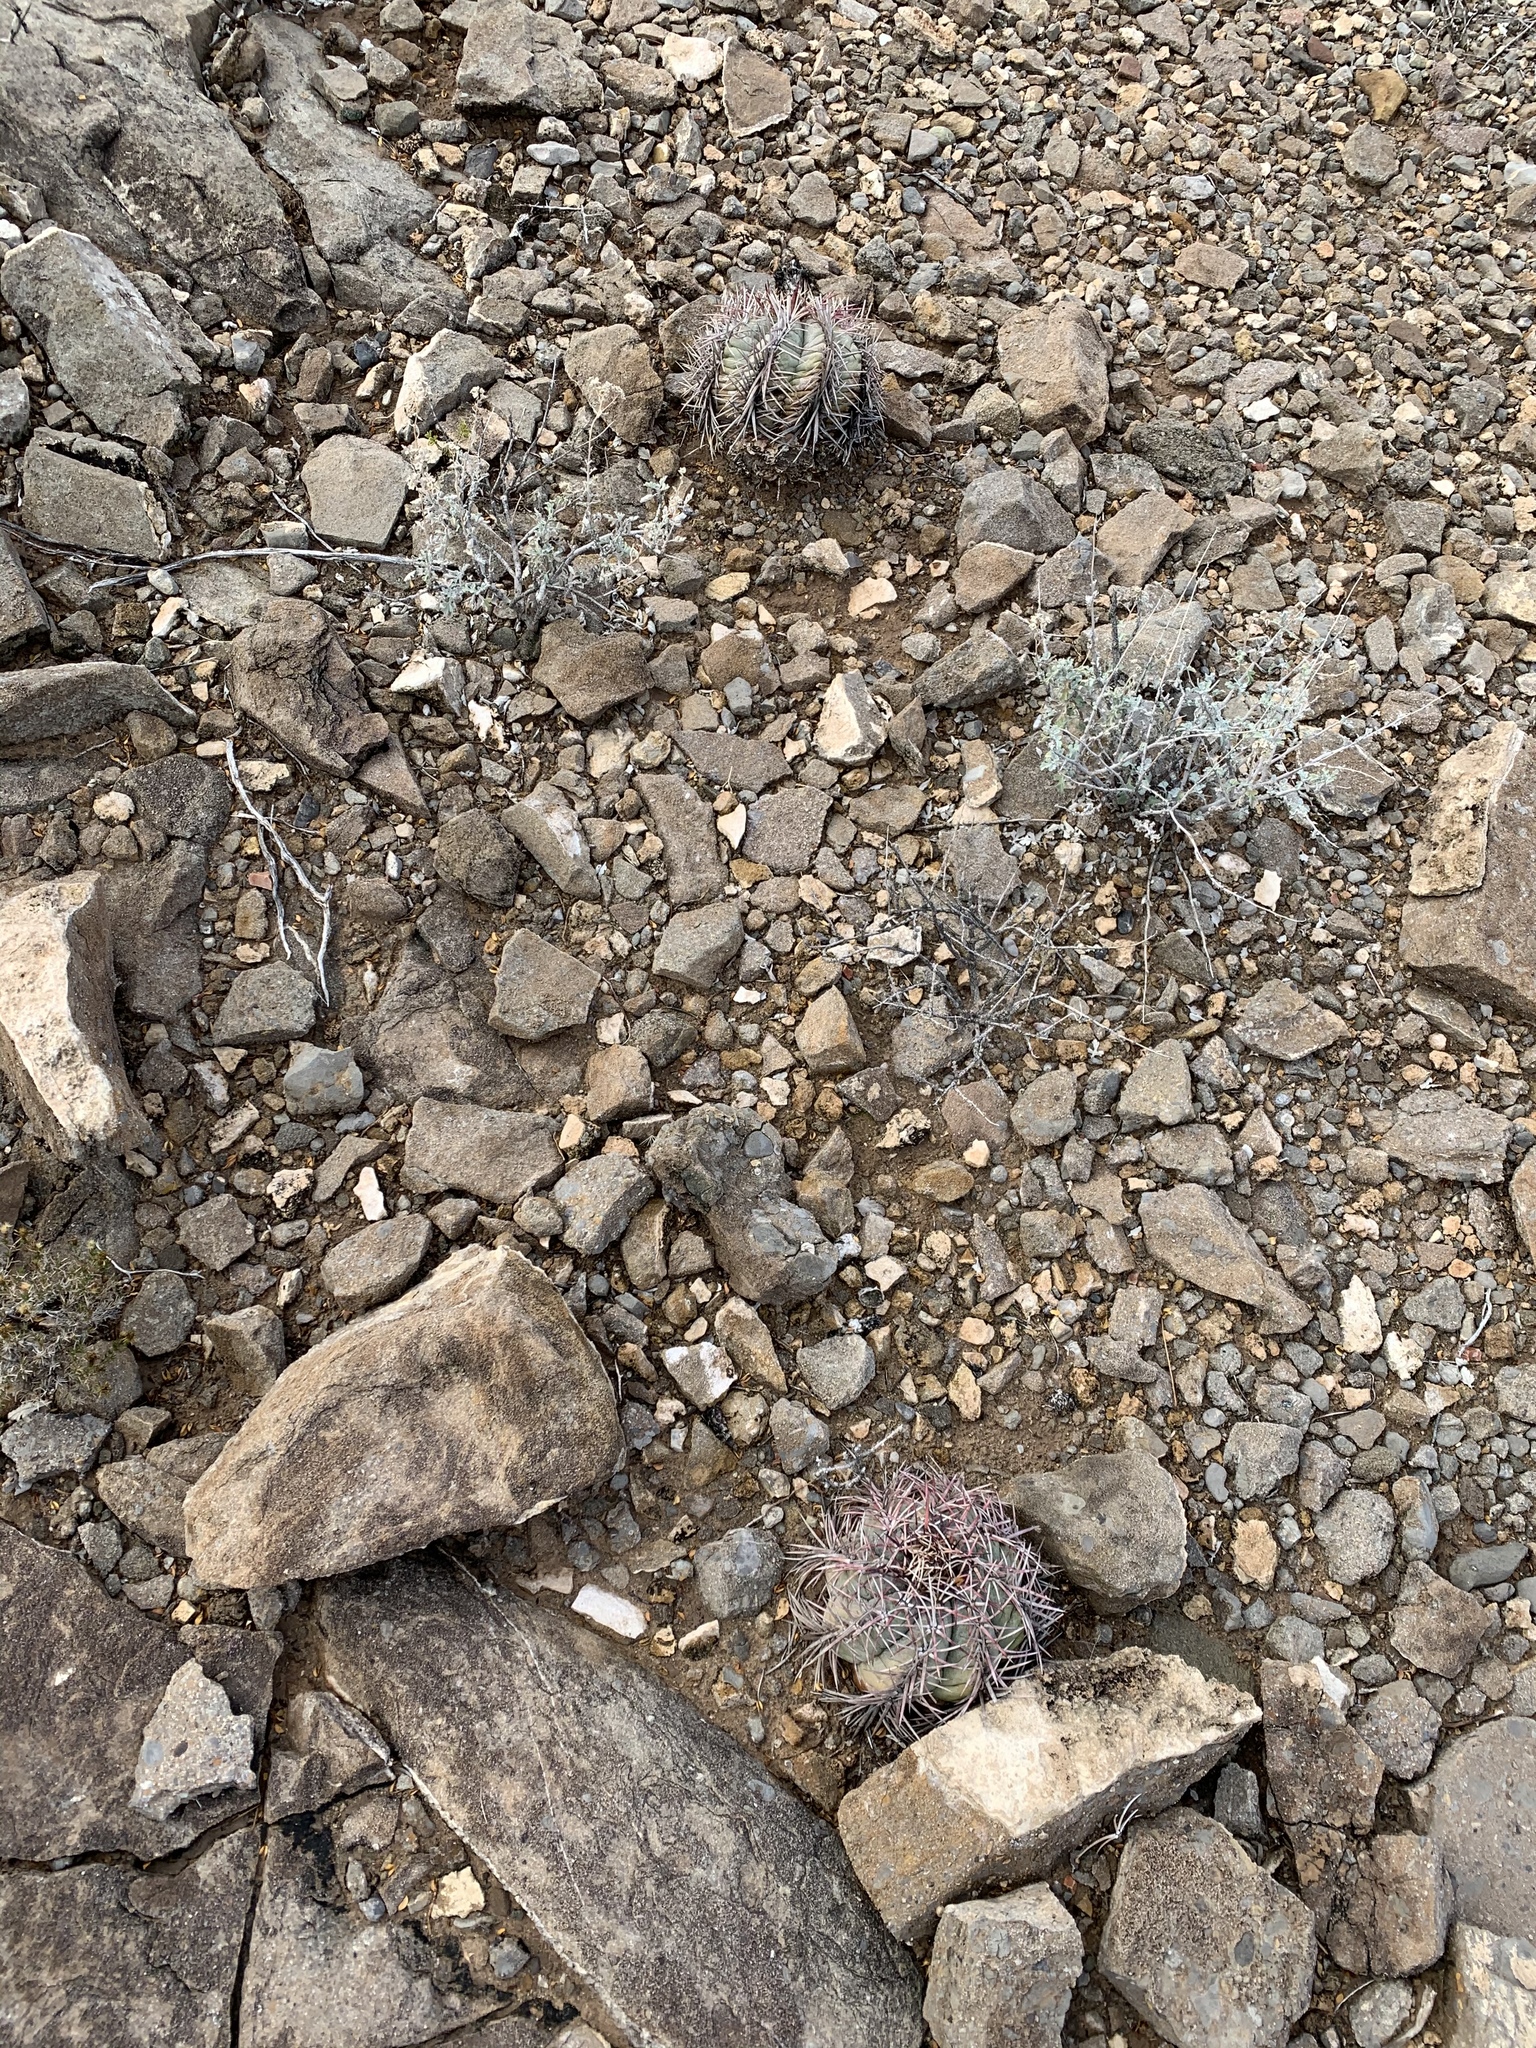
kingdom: Plantae
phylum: Tracheophyta
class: Magnoliopsida
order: Caryophyllales
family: Cactaceae
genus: Echinocactus
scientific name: Echinocactus horizonthalonius
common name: Devilshead
